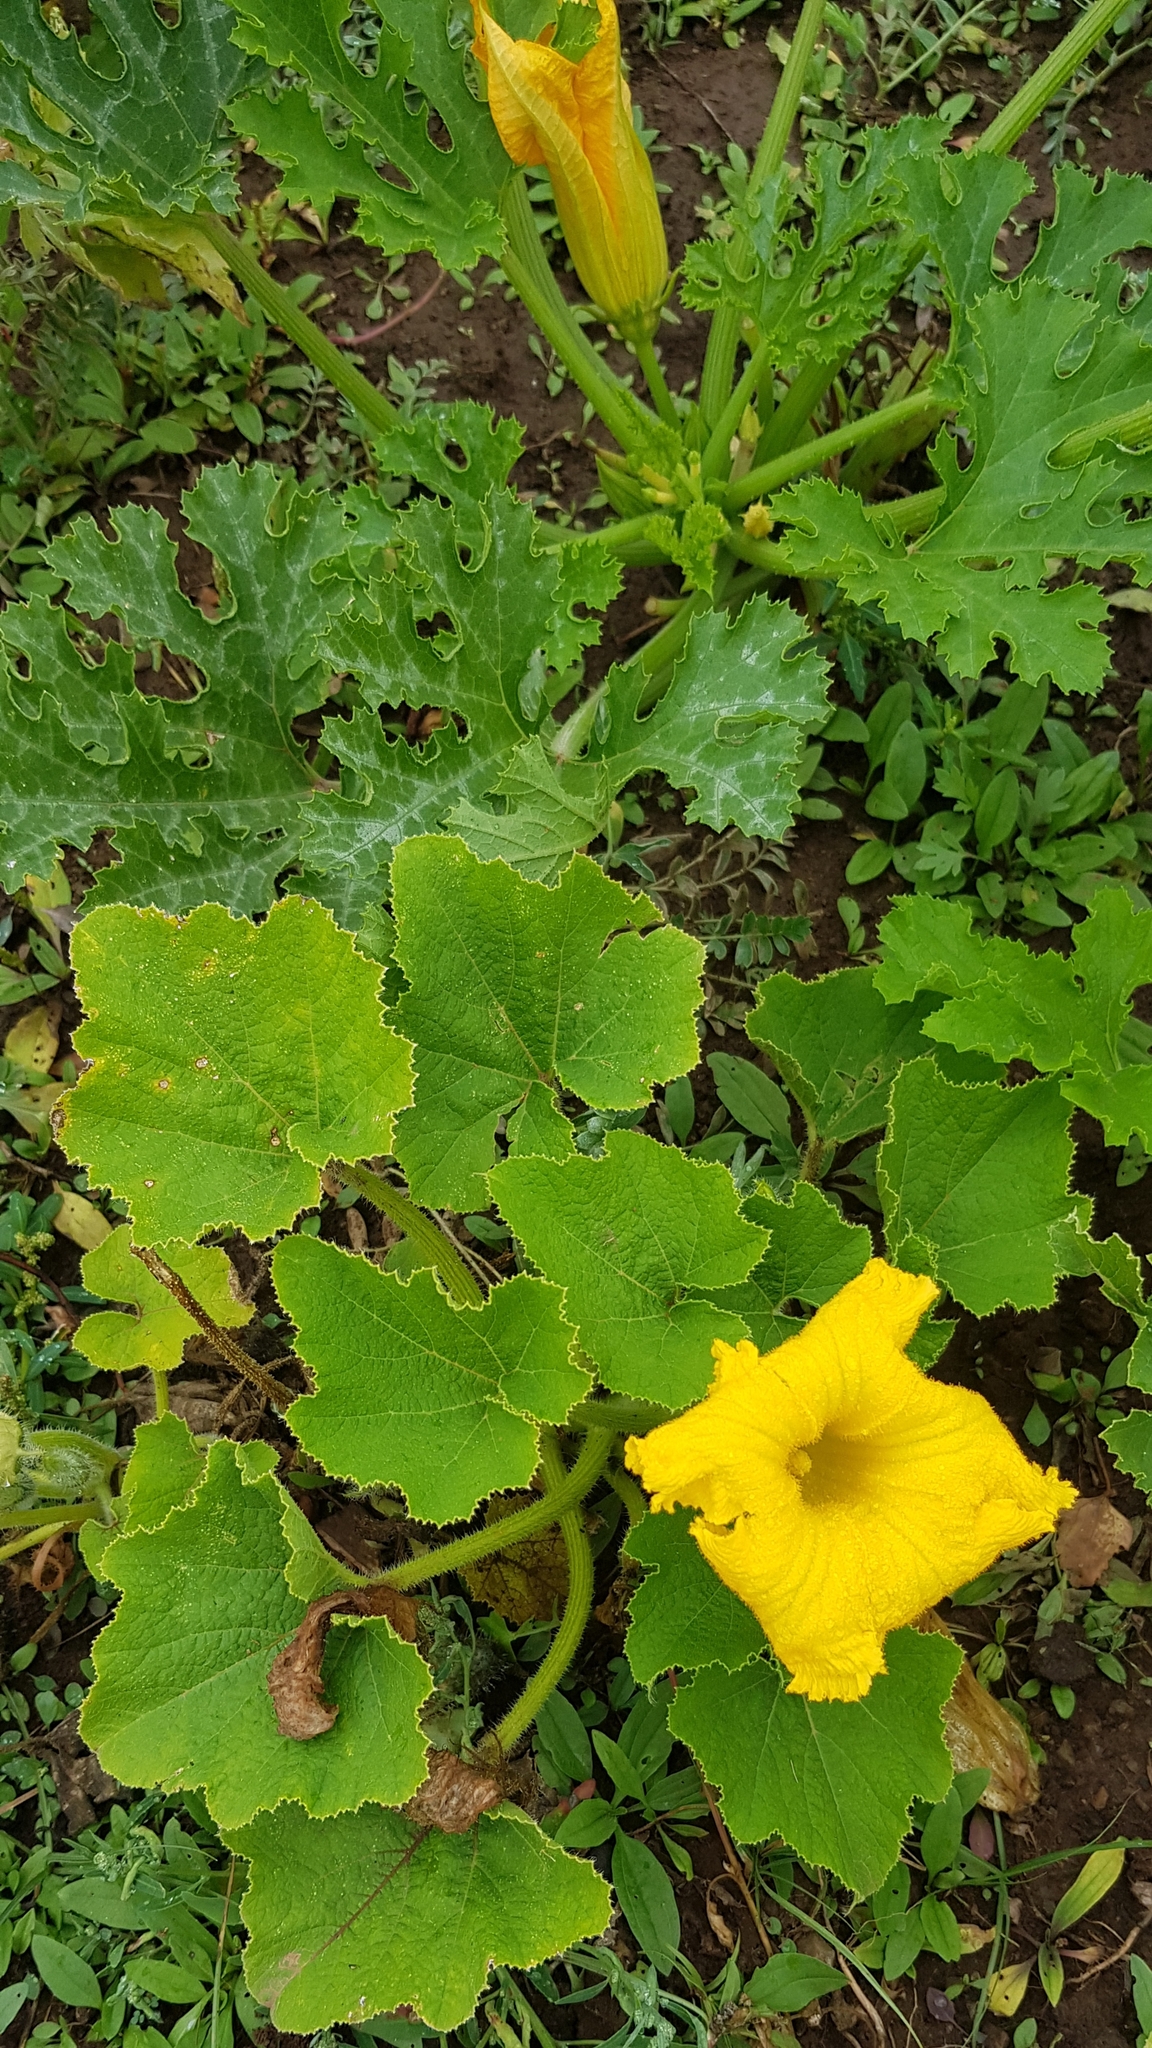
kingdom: Plantae
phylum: Tracheophyta
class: Magnoliopsida
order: Cucurbitales
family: Cucurbitaceae
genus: Cucumis
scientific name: Cucumis sativus
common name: Cucumber
